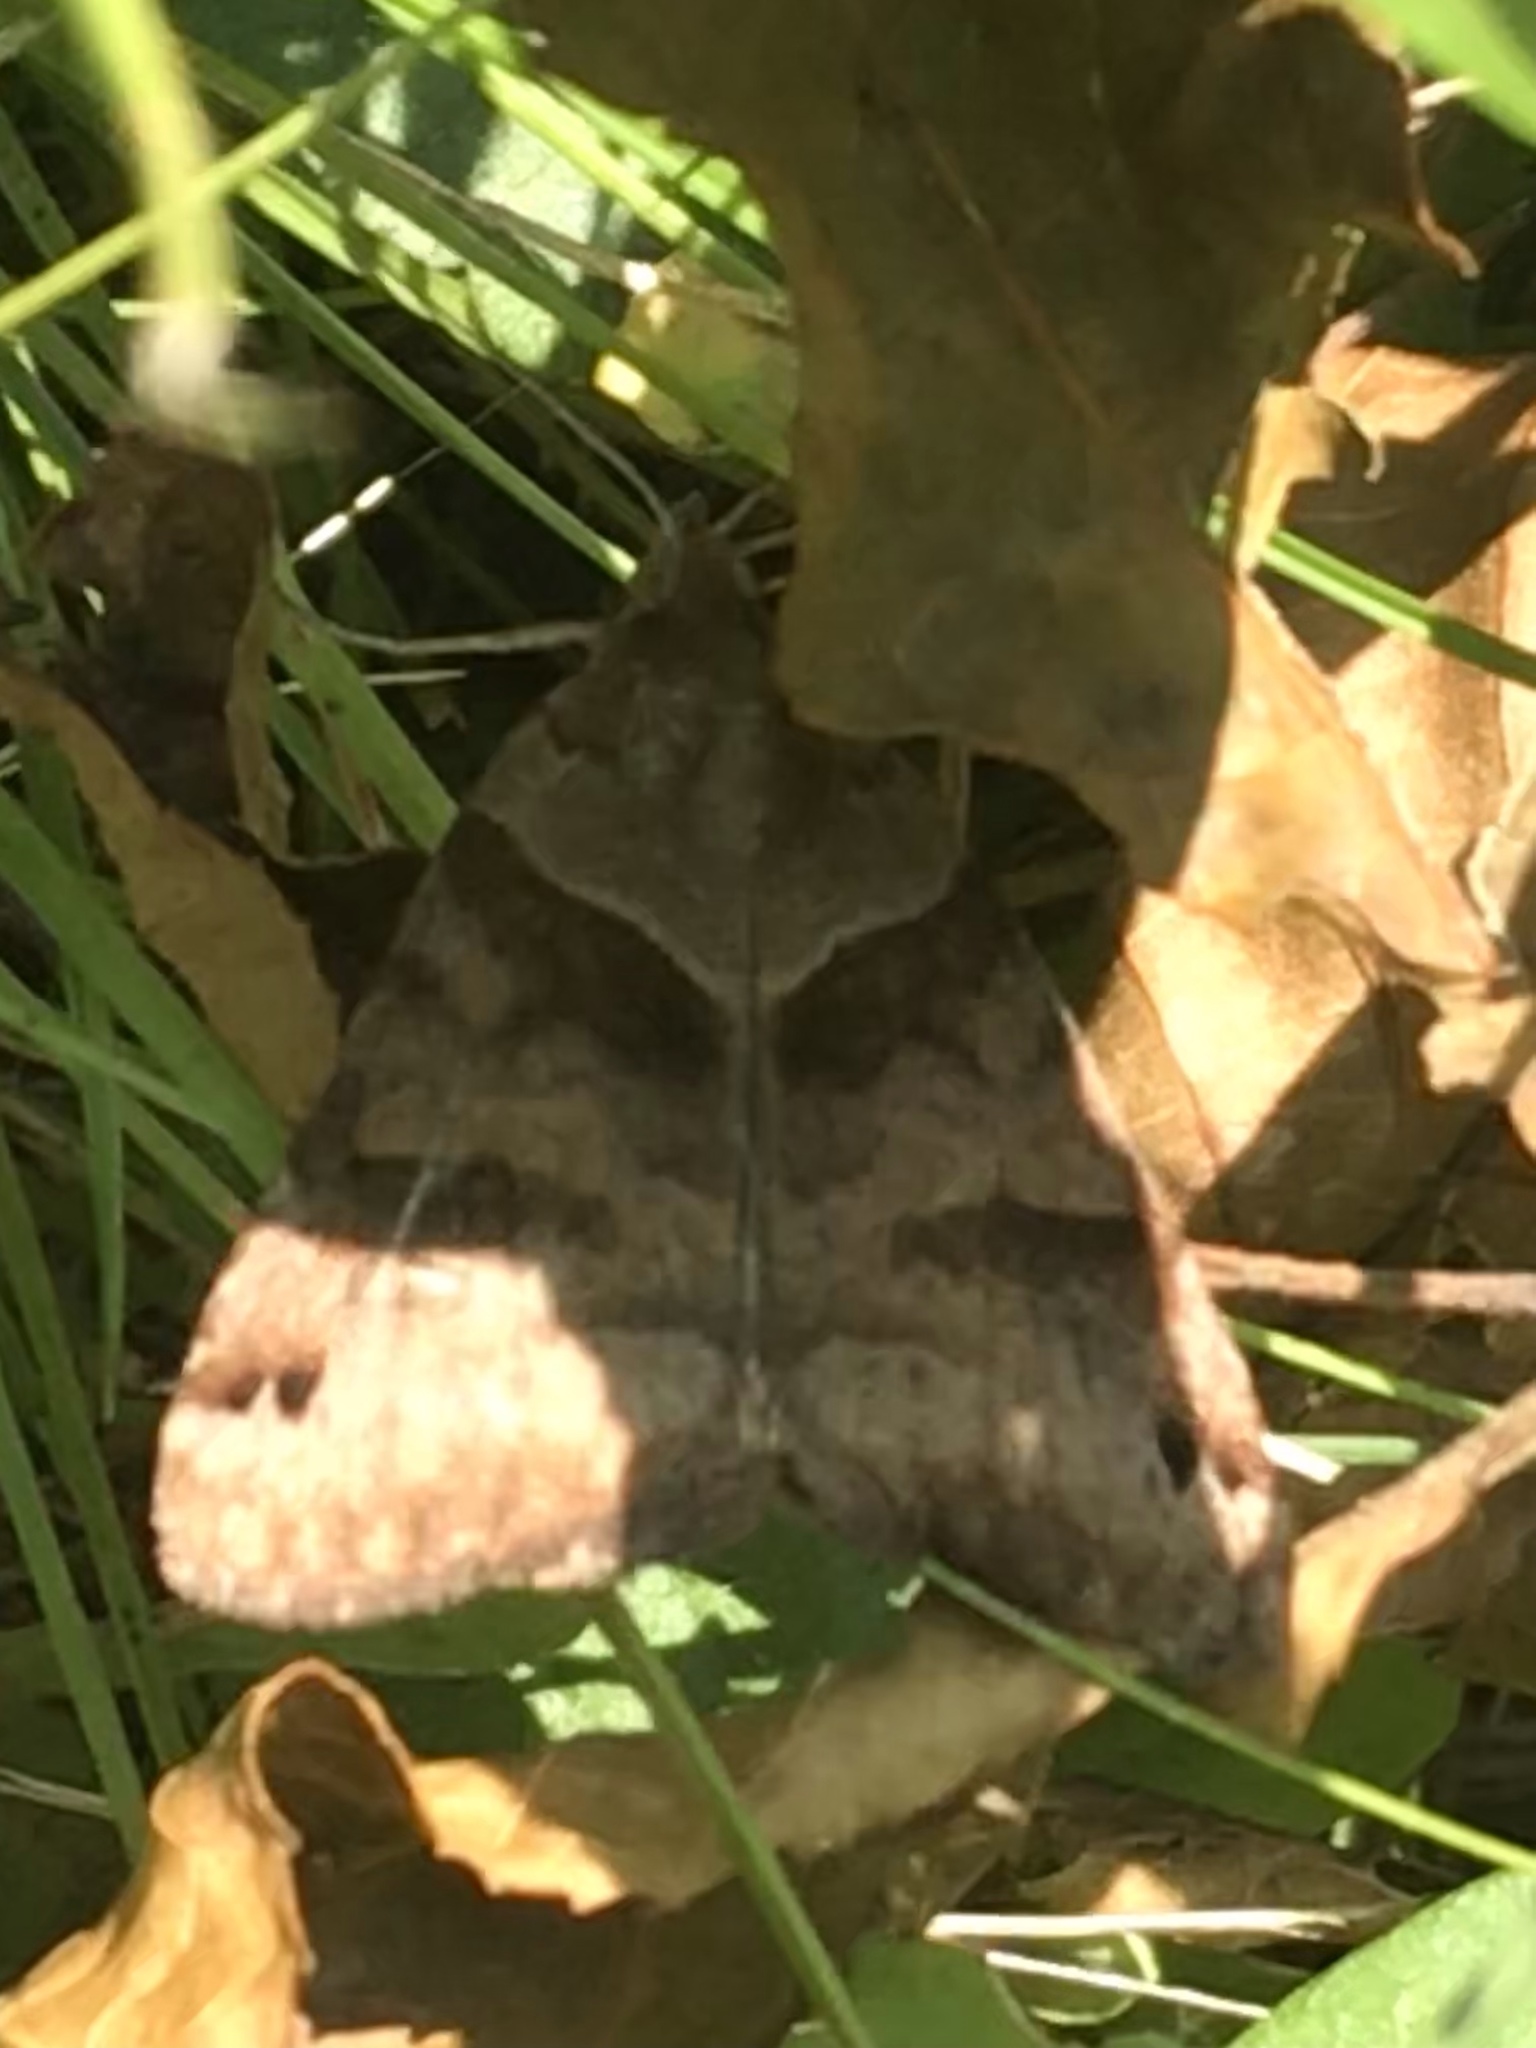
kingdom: Animalia
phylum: Arthropoda
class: Insecta
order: Lepidoptera
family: Erebidae
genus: Caenurgina
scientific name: Caenurgina erechtea
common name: Forage looper moth
